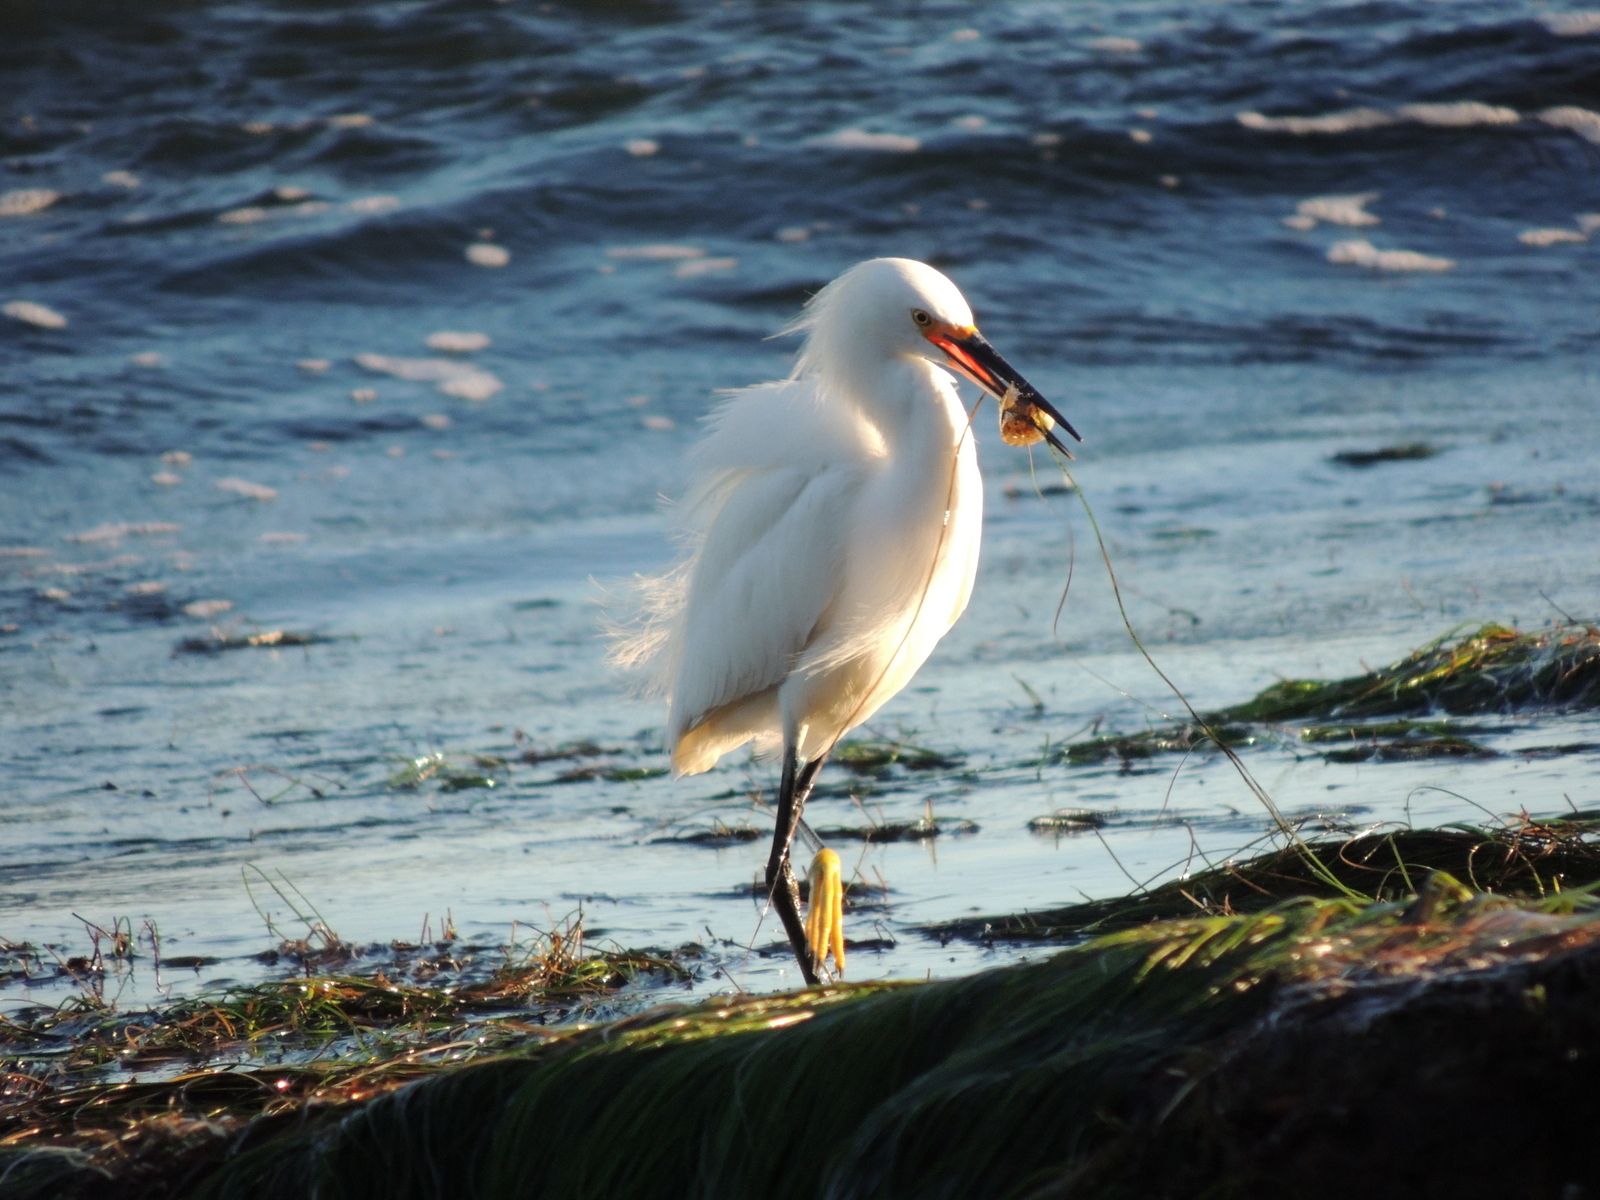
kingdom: Animalia
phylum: Chordata
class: Aves
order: Pelecaniformes
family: Ardeidae
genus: Egretta
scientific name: Egretta thula
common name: Snowy egret
